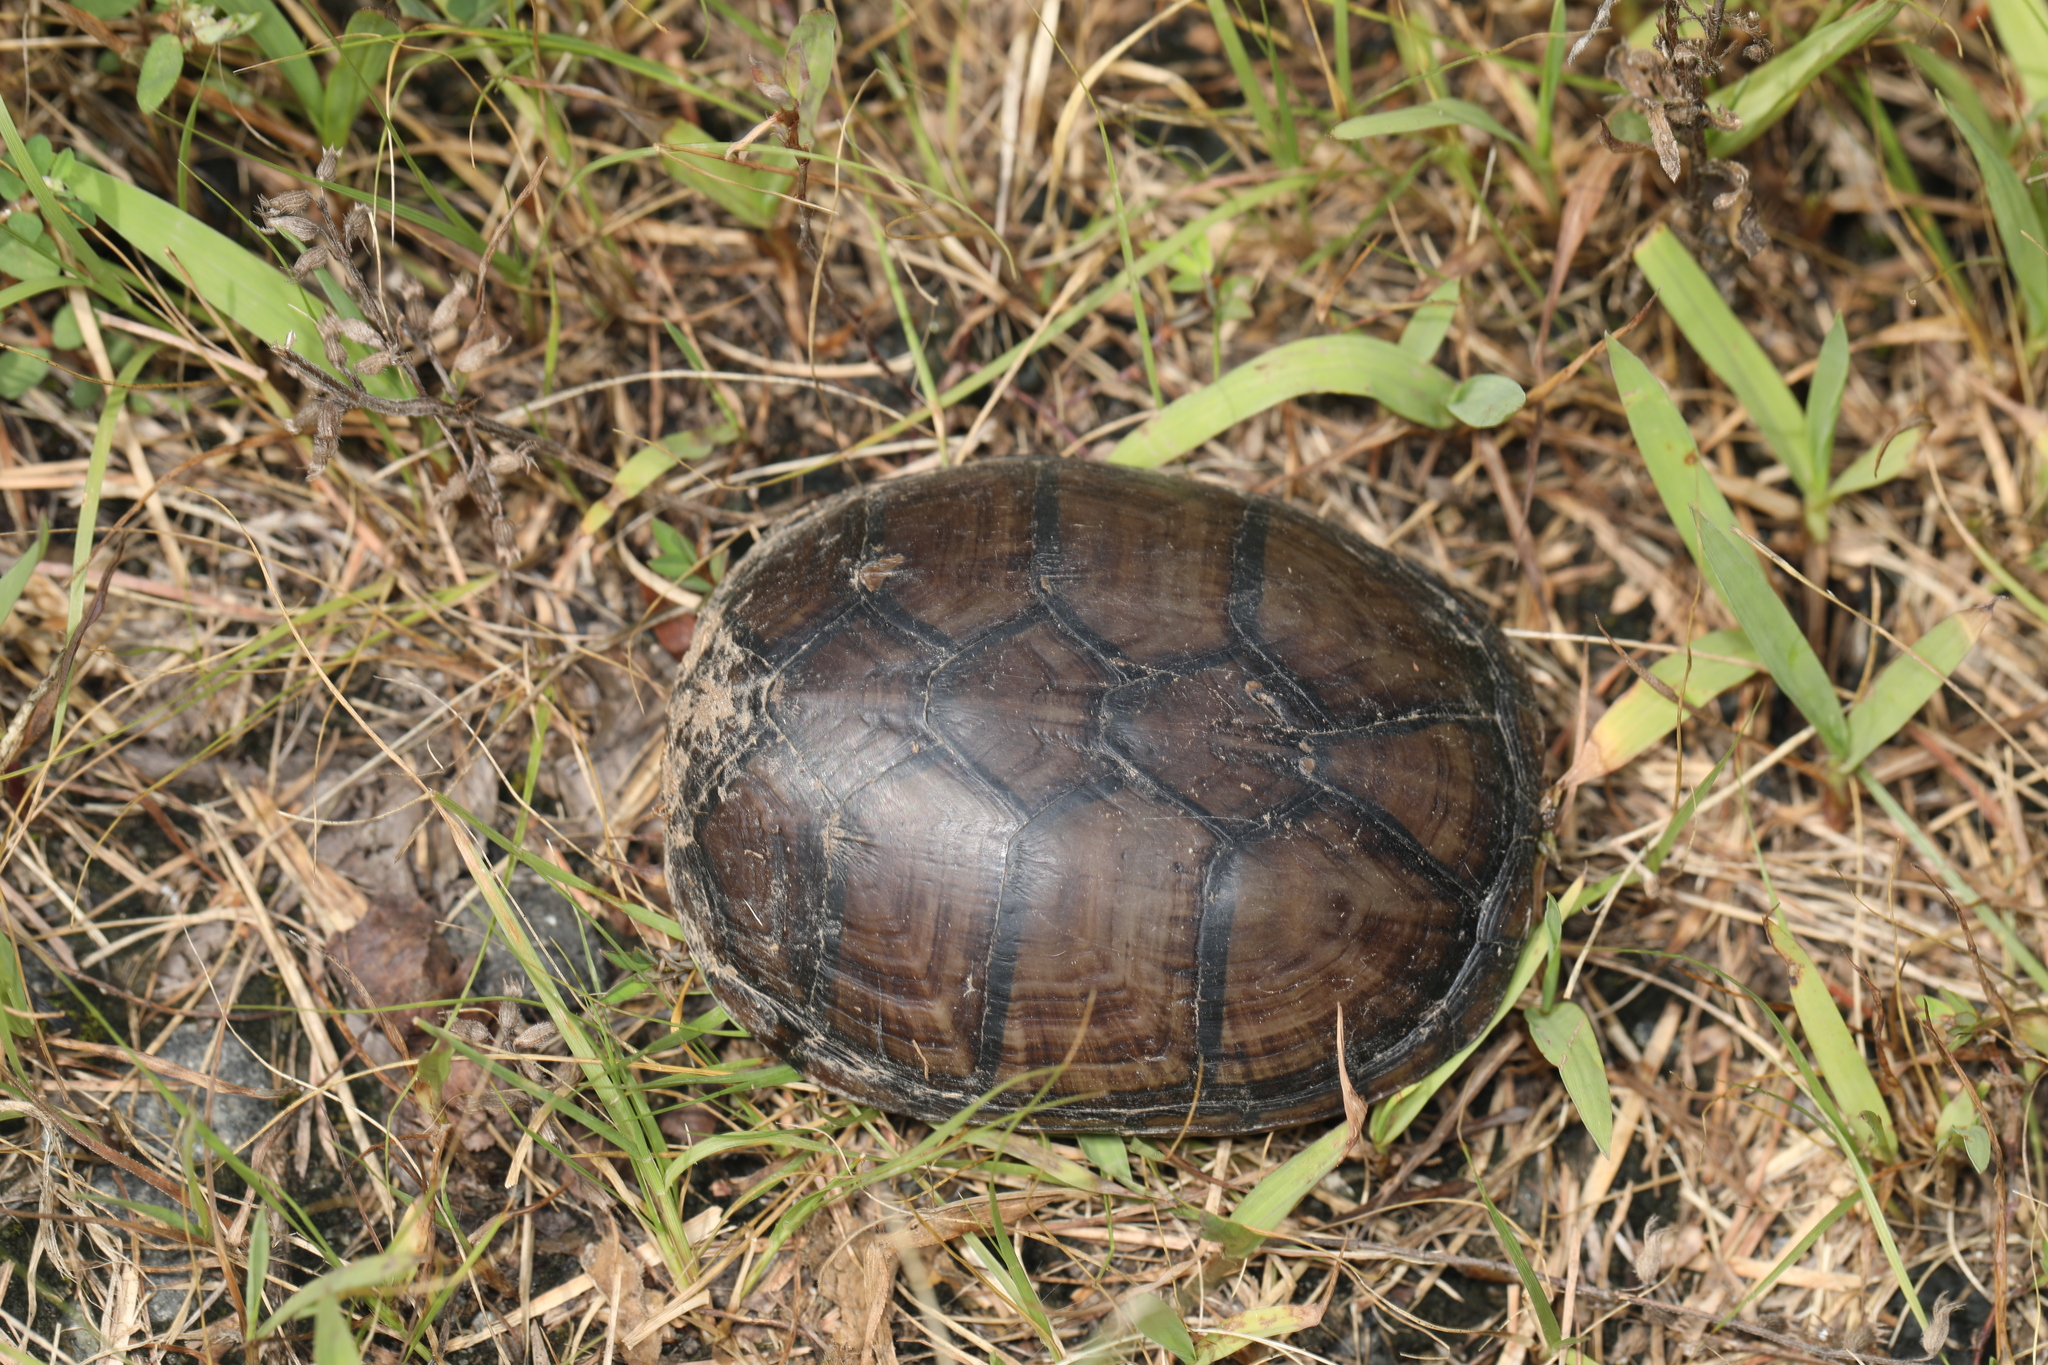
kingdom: Animalia
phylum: Chordata
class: Testudines
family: Kinosternidae
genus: Kinosternon
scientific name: Kinosternon subrubrum
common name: Eastern mud turtle
